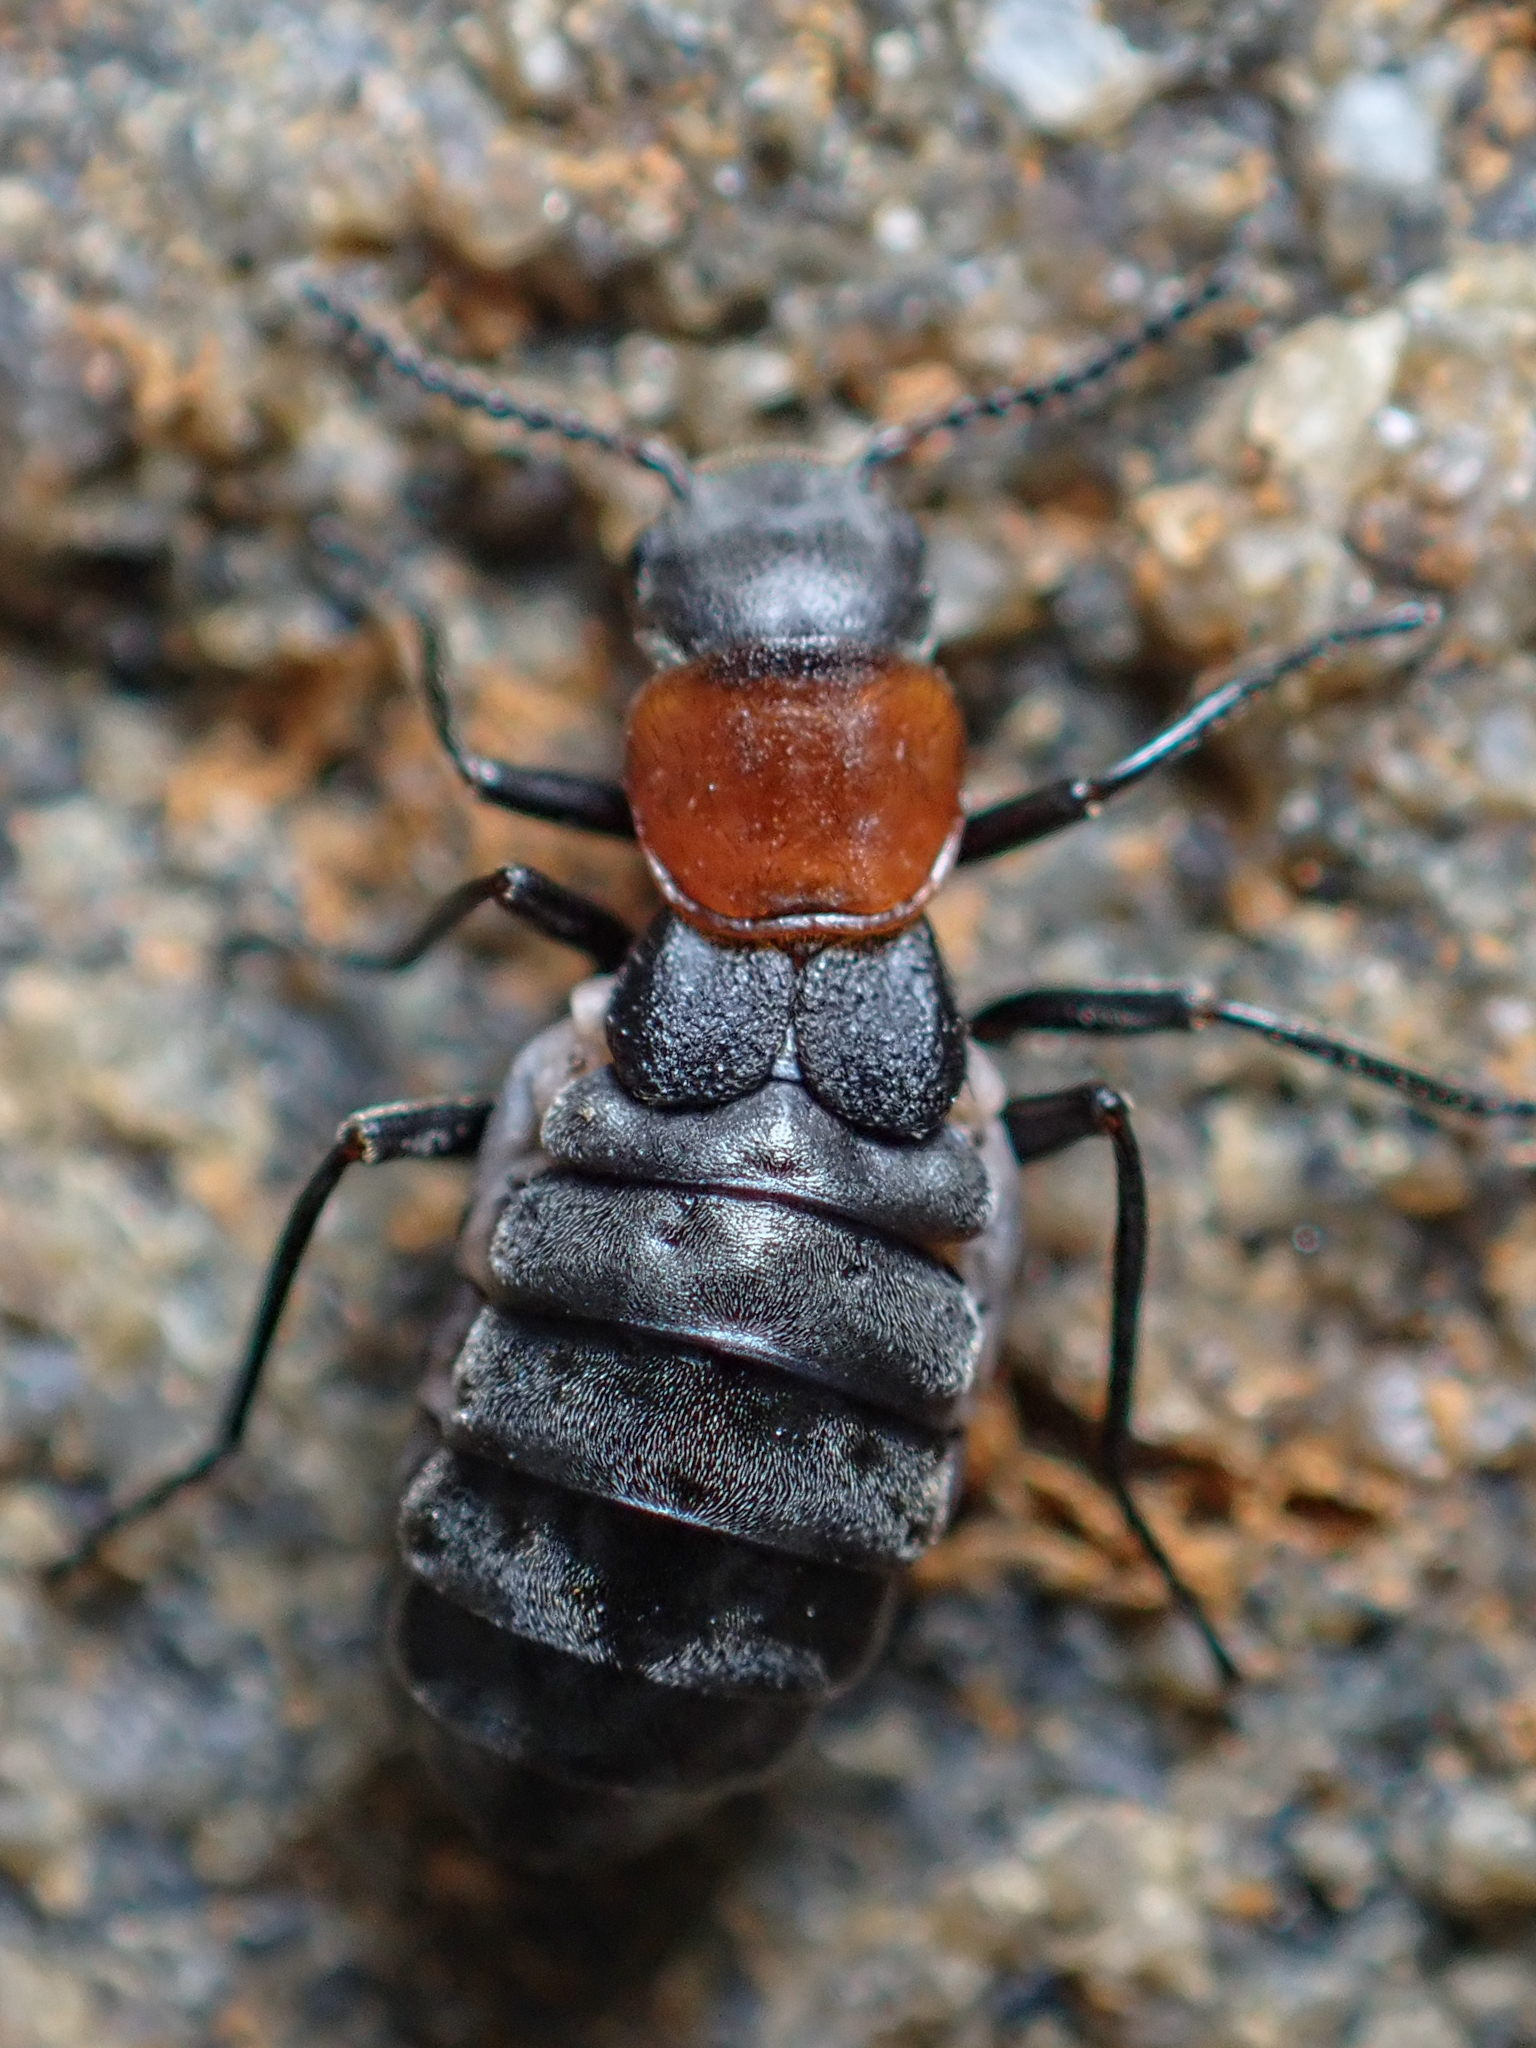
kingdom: Animalia
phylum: Arthropoda
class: Insecta
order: Coleoptera
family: Melyridae
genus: Endeodes
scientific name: Endeodes collaris
